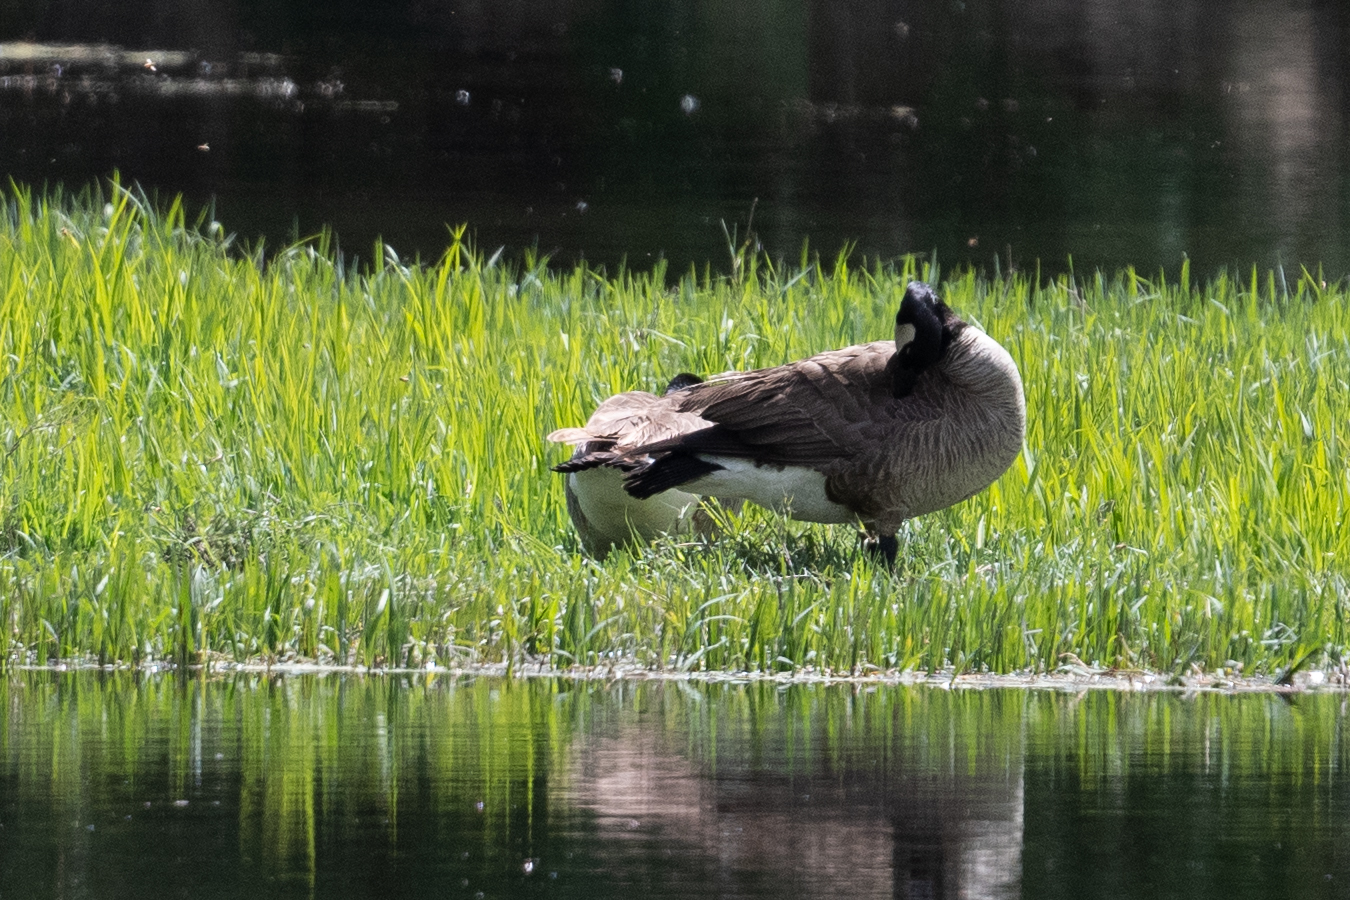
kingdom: Animalia
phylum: Chordata
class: Aves
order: Anseriformes
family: Anatidae
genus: Branta
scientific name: Branta canadensis
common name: Canada goose
